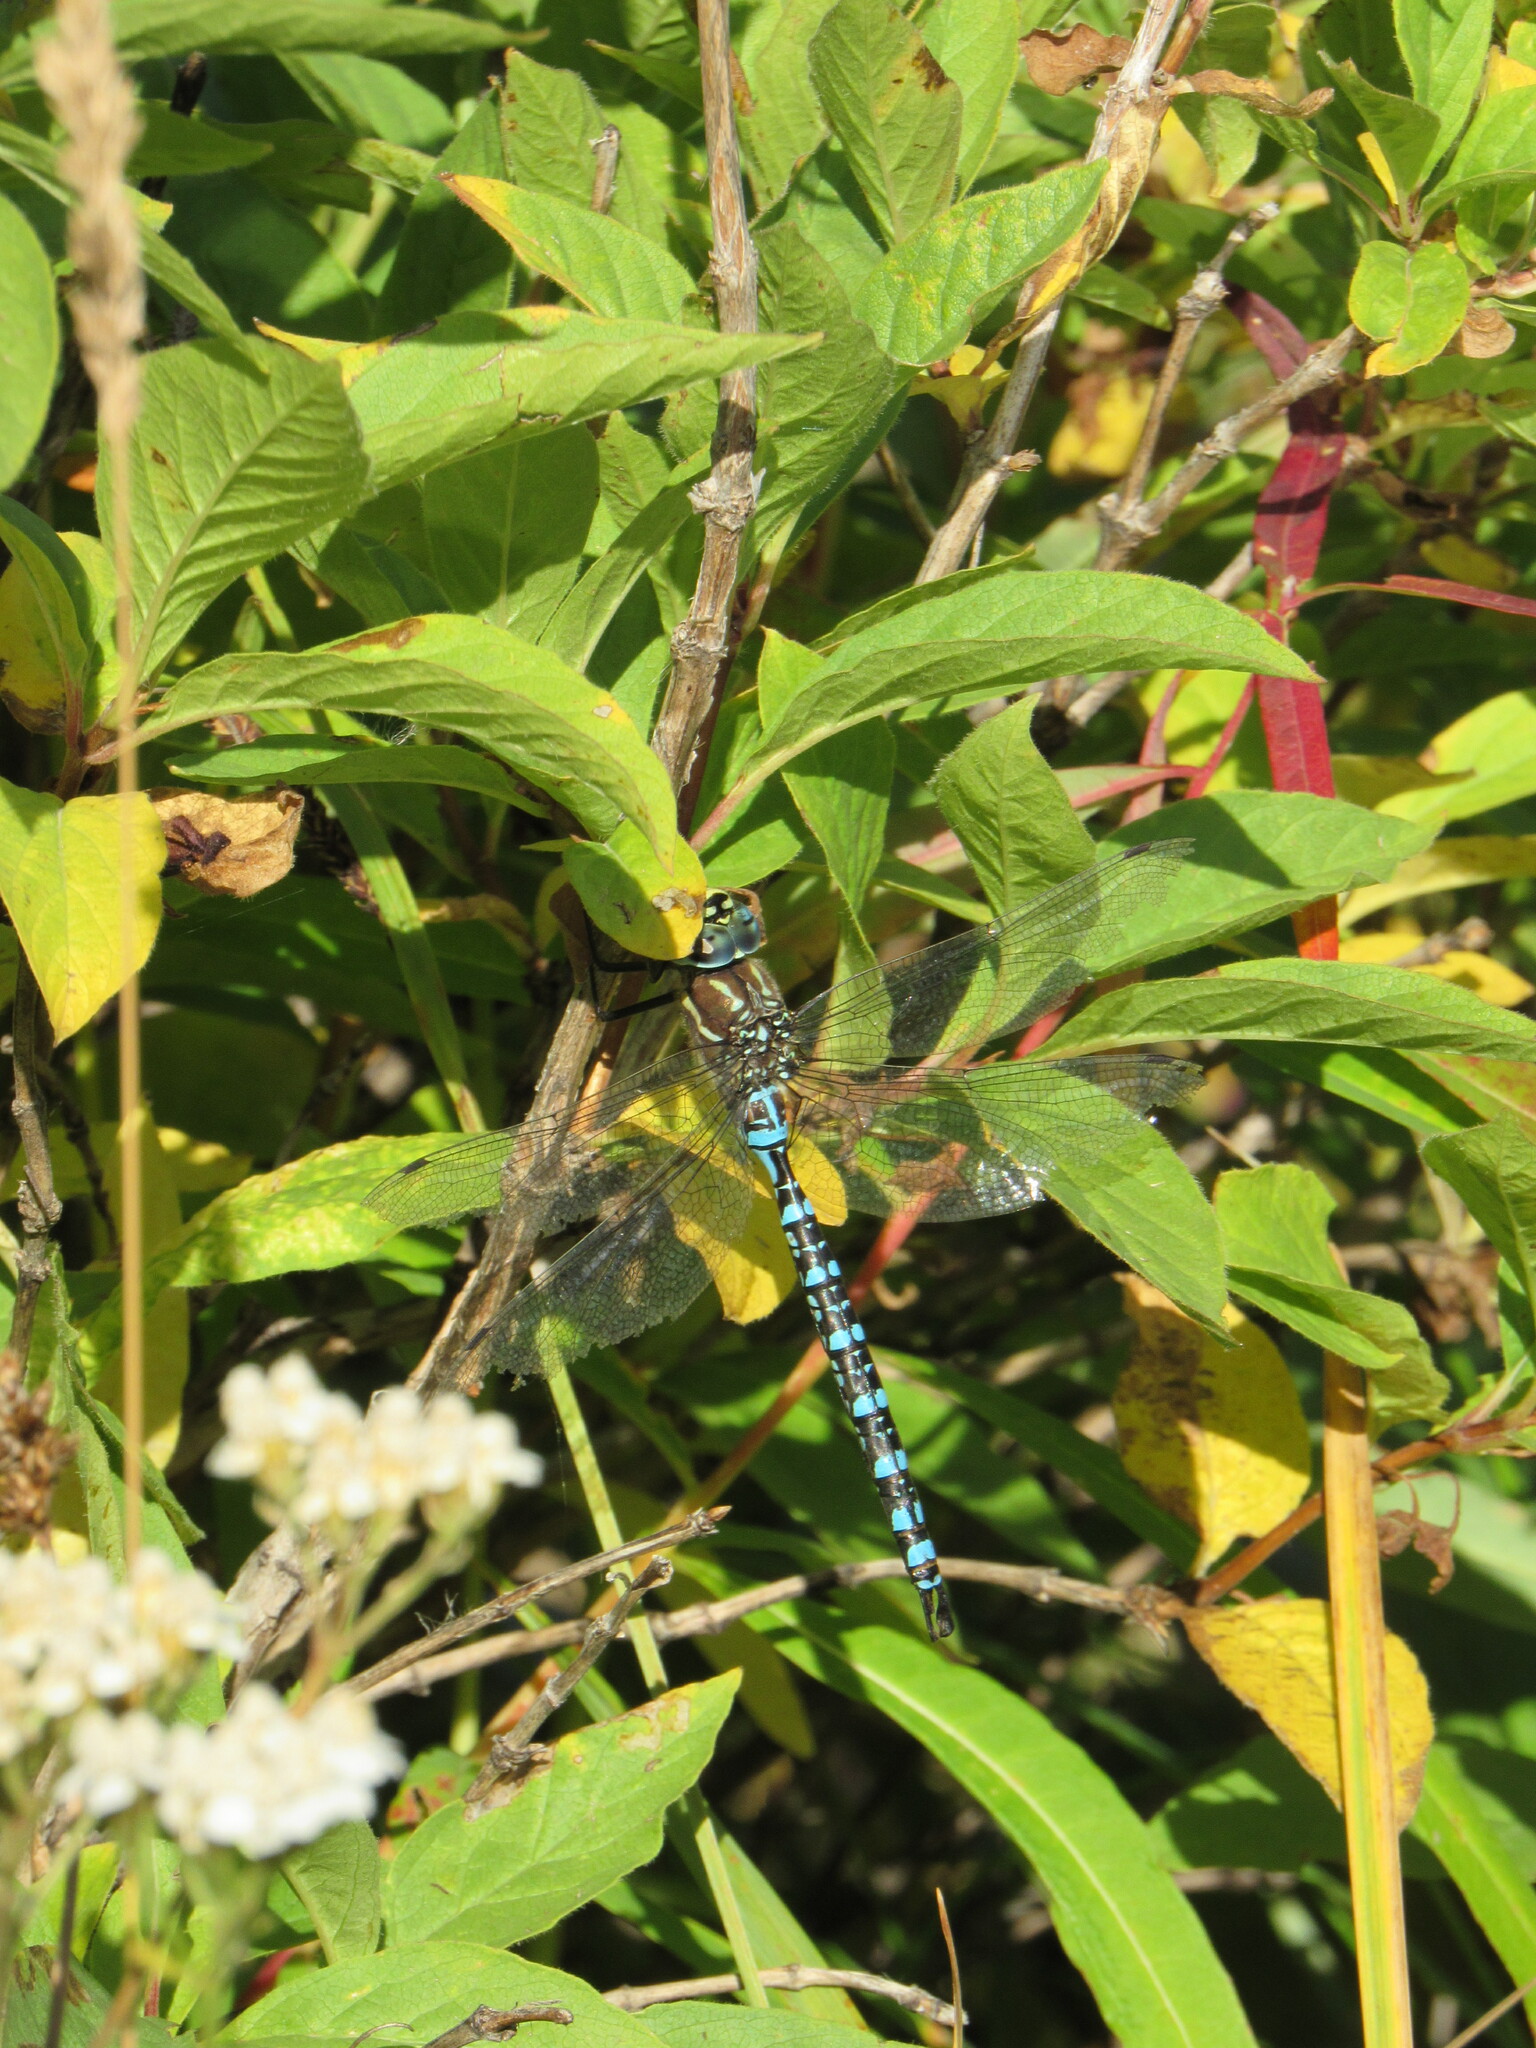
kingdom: Animalia
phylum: Arthropoda
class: Insecta
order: Odonata
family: Aeshnidae
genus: Aeshna
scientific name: Aeshna palmata
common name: Paddle-tailed darner
